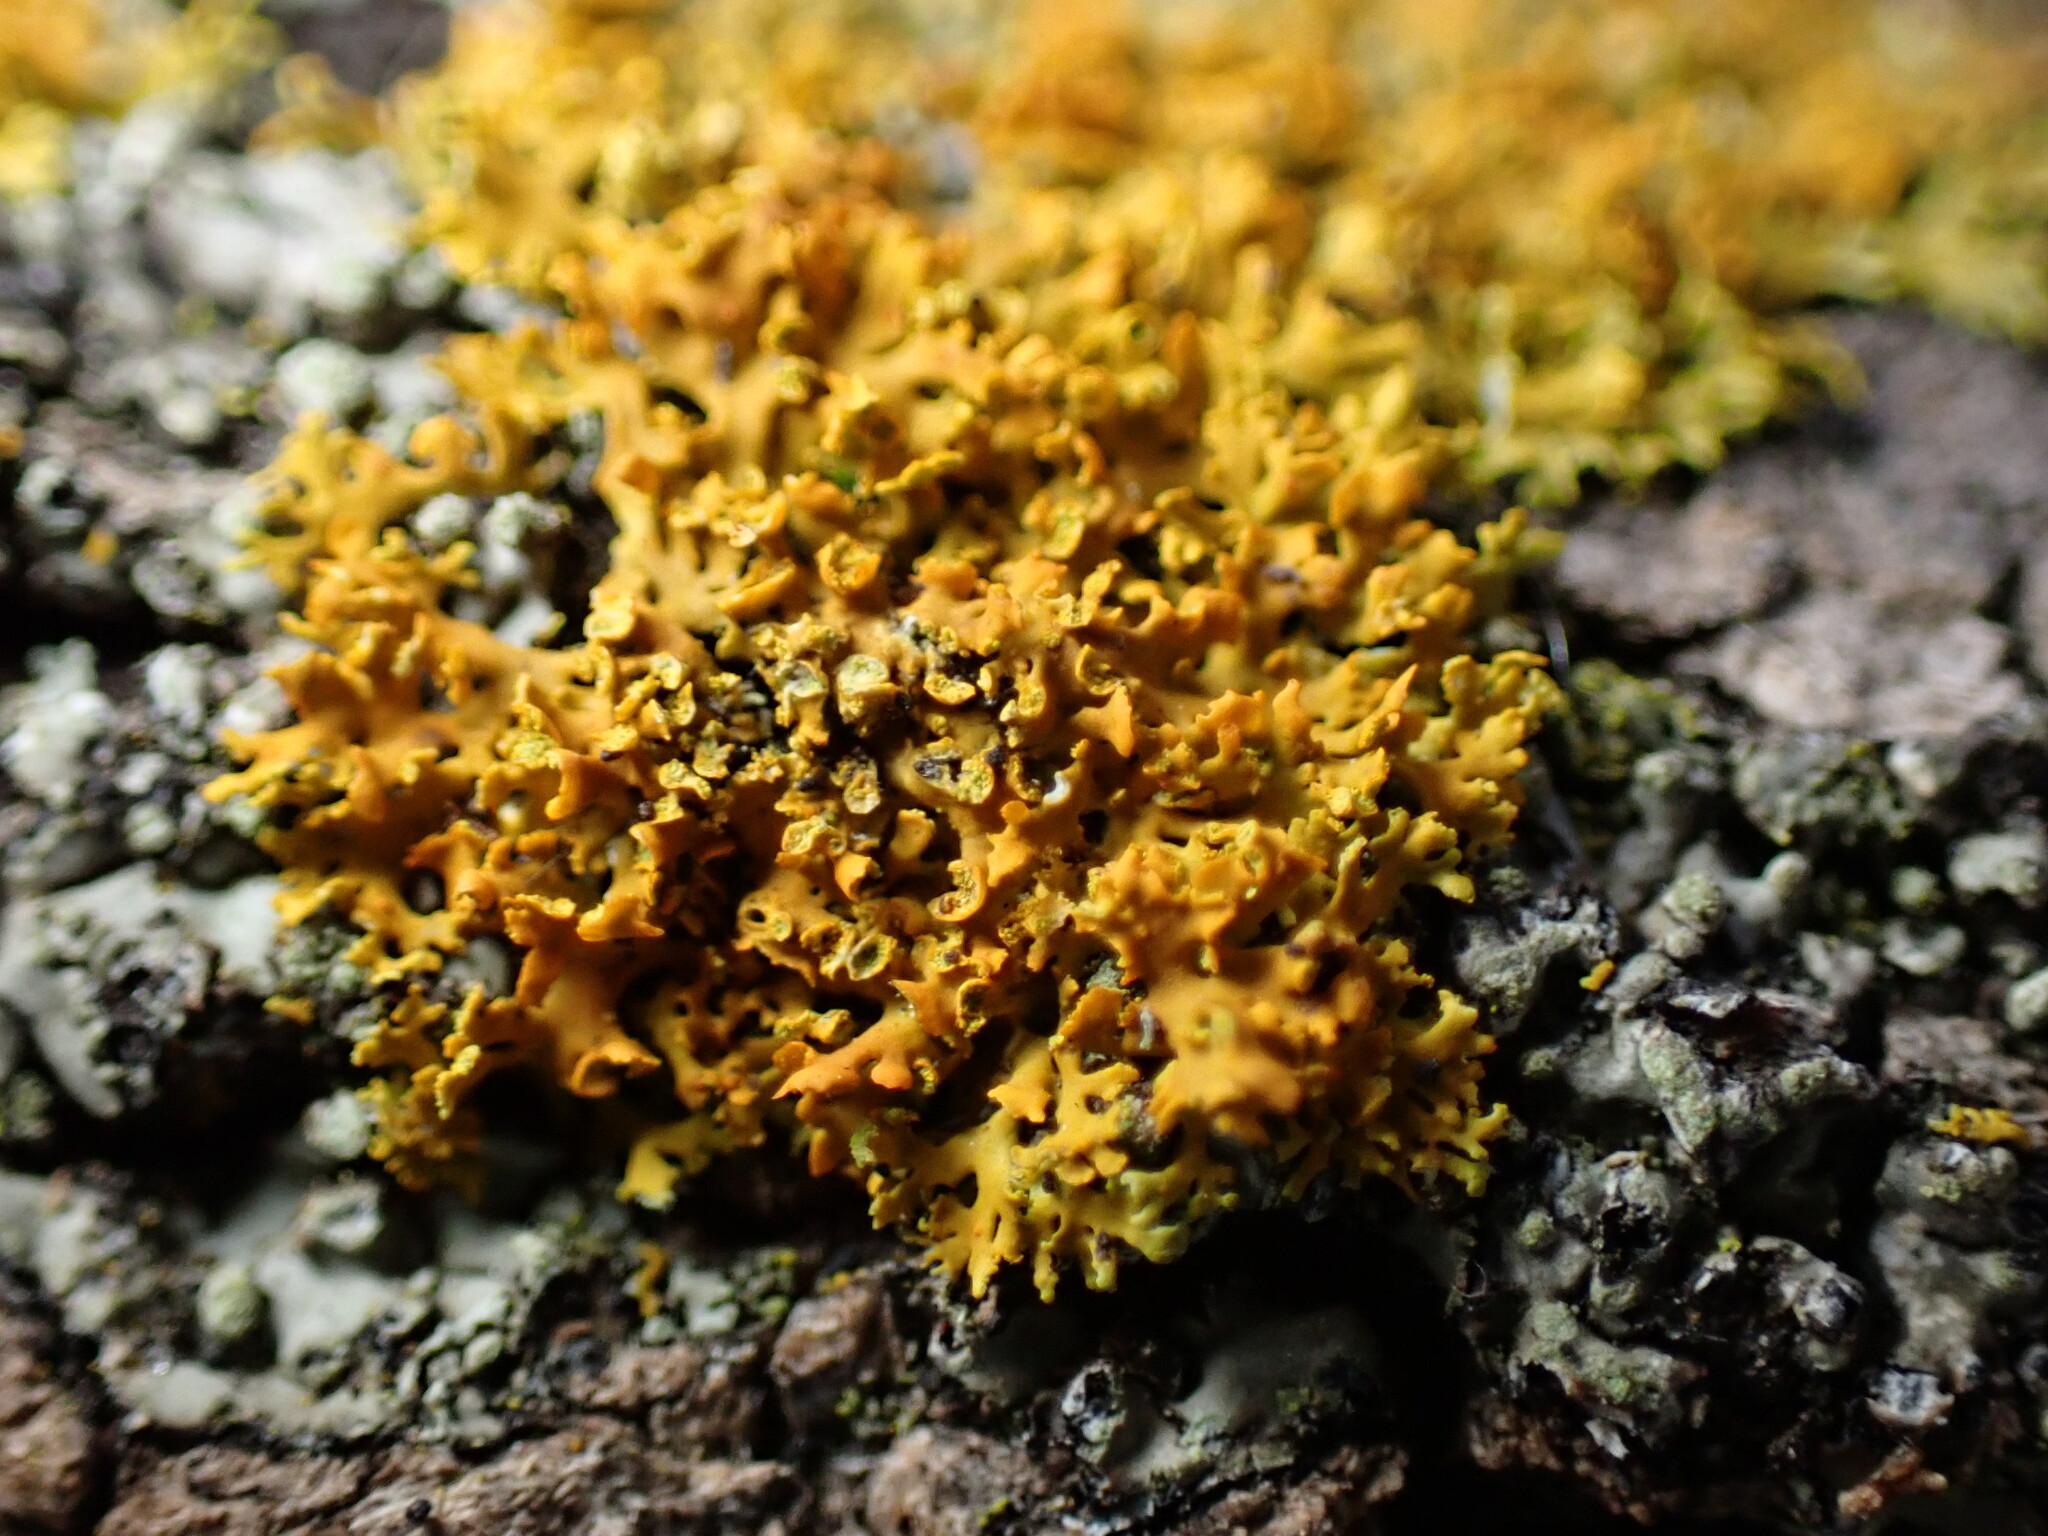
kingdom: Fungi
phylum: Ascomycota
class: Lecanoromycetes
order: Teloschistales
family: Teloschistaceae
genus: Oxneria
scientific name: Oxneria fallax
